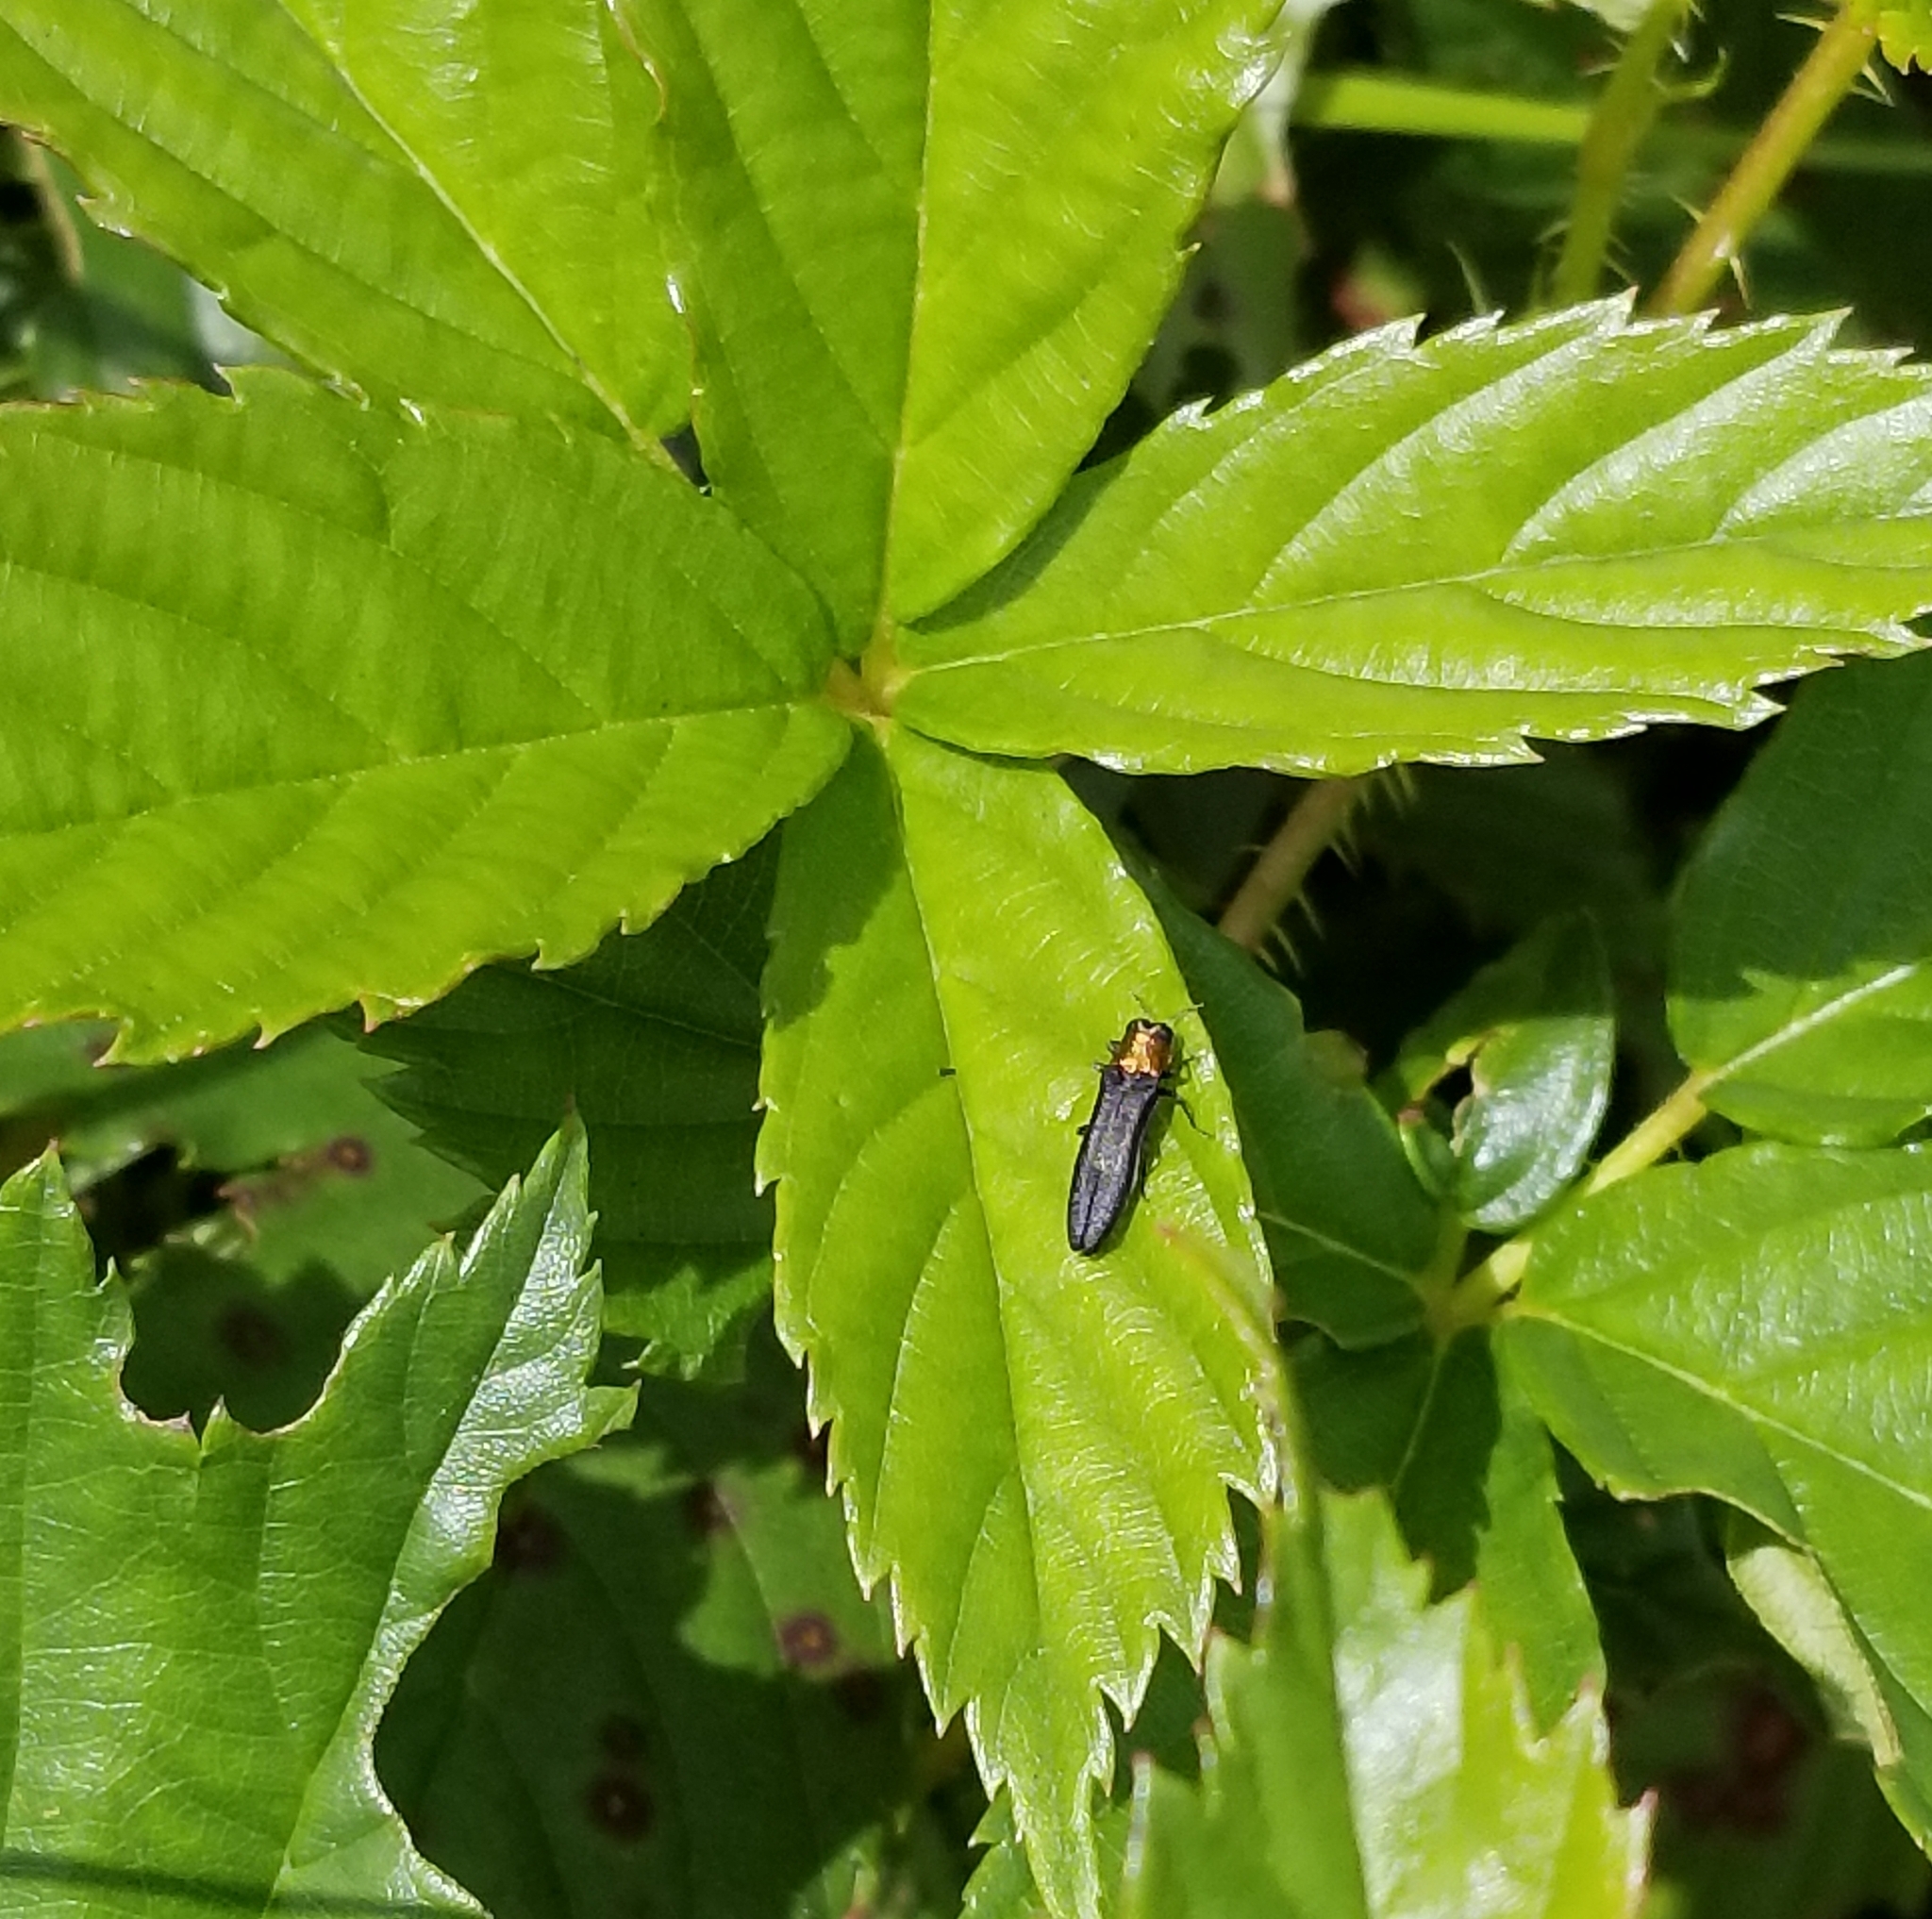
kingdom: Animalia
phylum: Arthropoda
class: Insecta
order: Coleoptera
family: Buprestidae
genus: Agrilus
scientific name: Agrilus ruficollis
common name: Red-necked cane borer beetle
